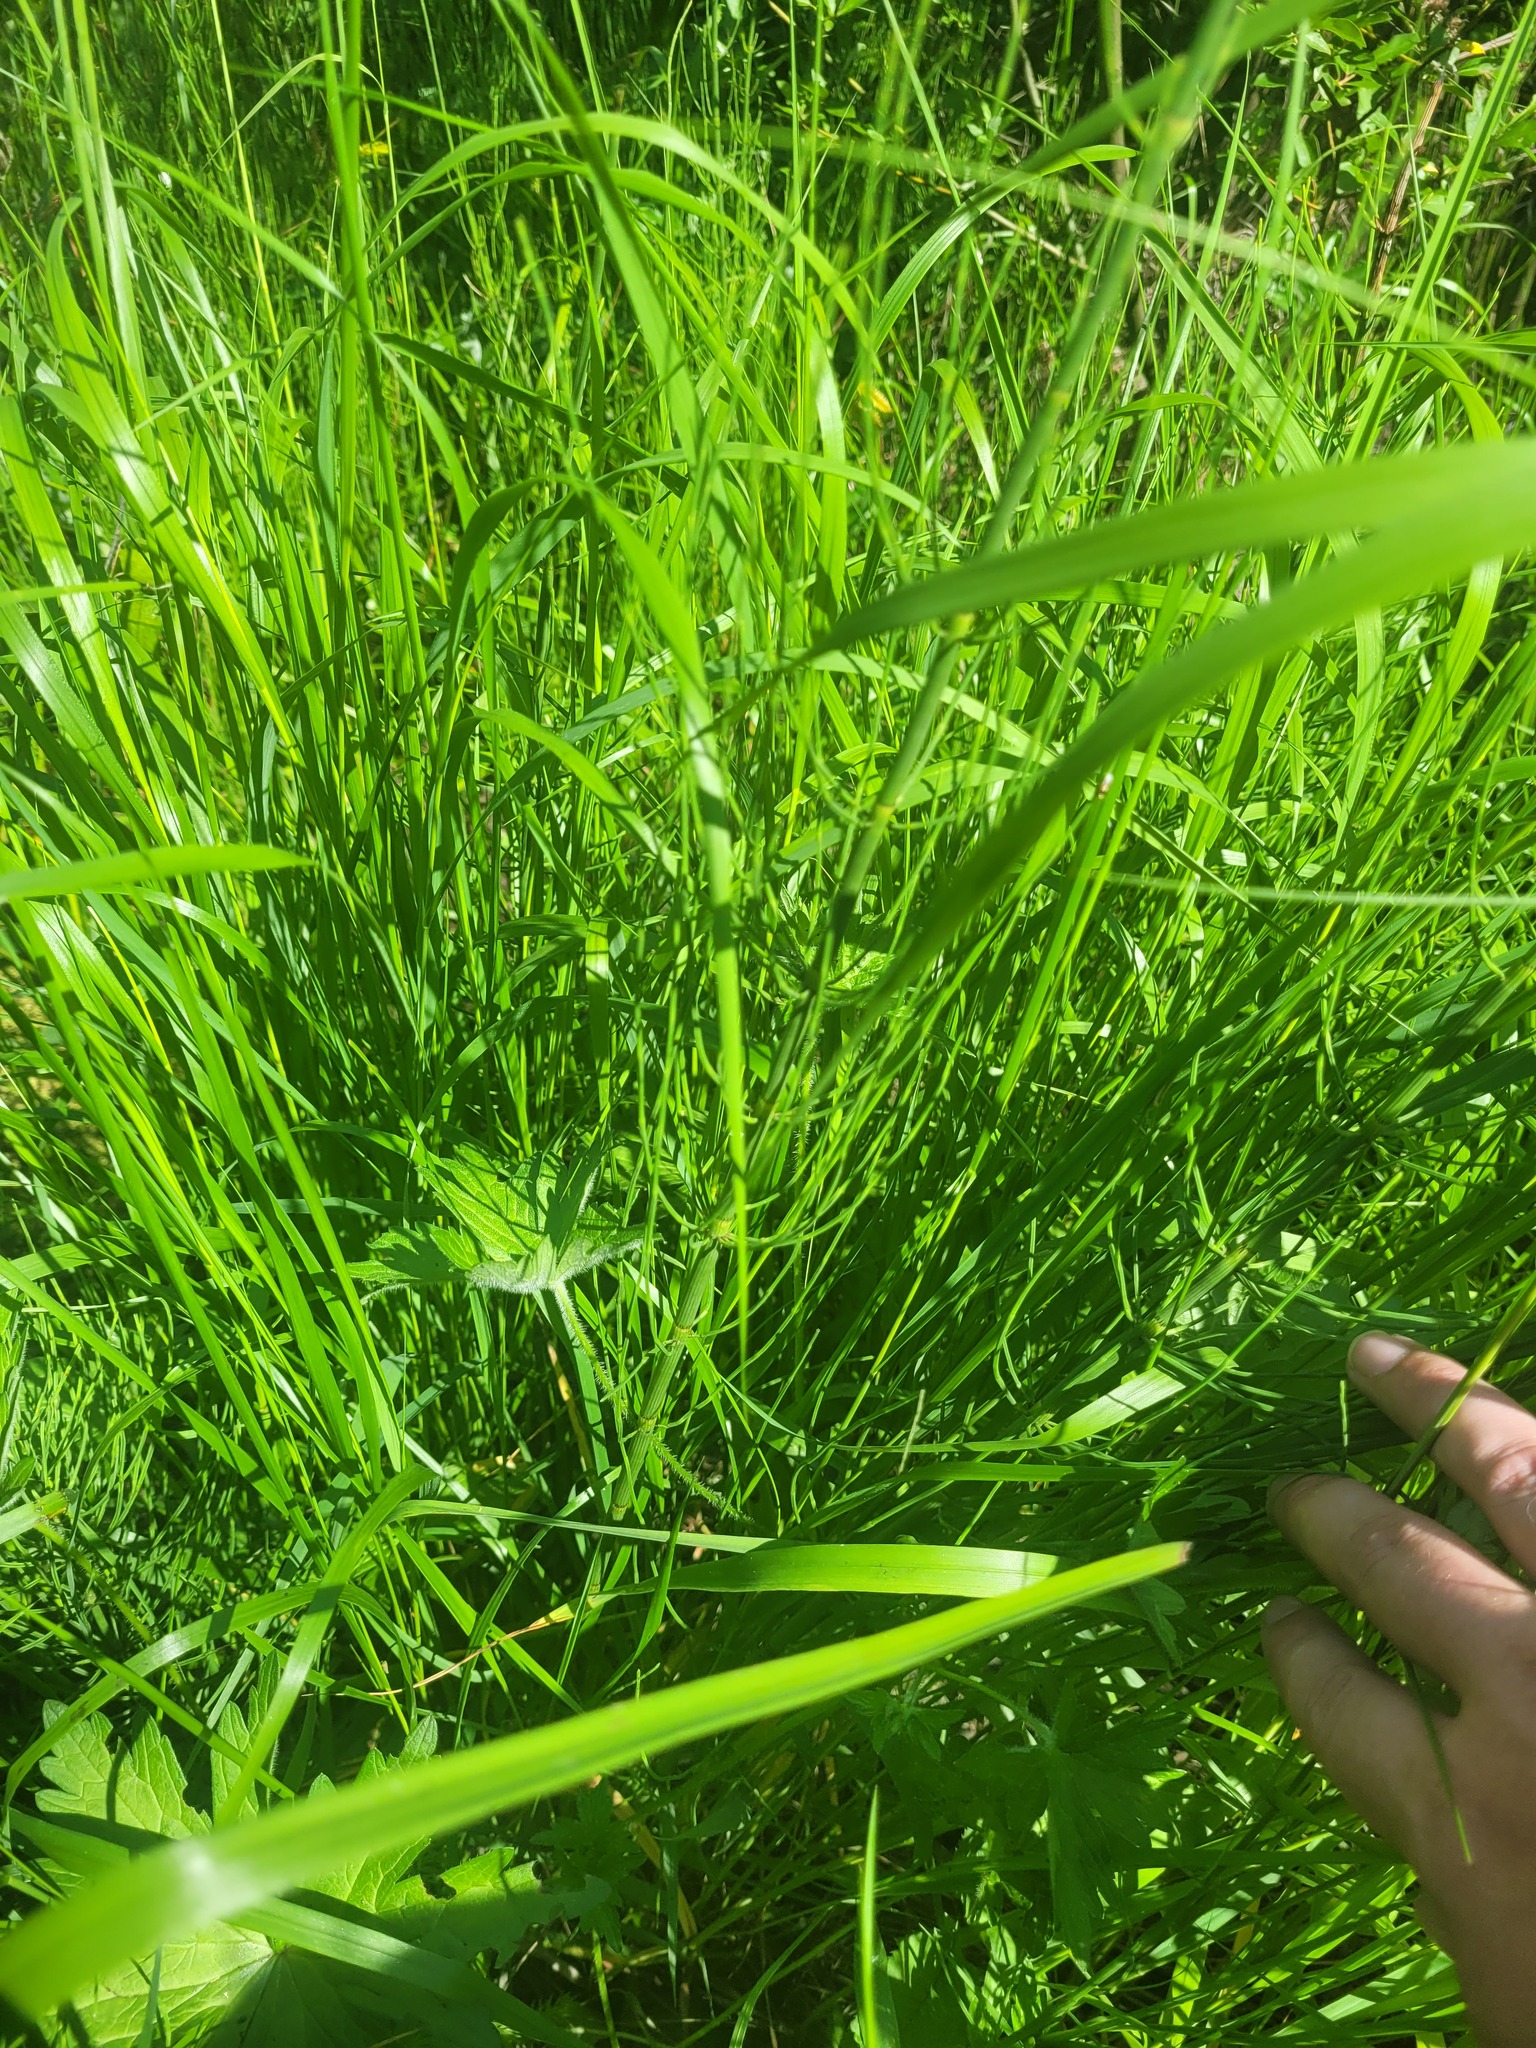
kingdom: Plantae
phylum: Tracheophyta
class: Polypodiopsida
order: Equisetales
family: Equisetaceae
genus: Equisetum
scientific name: Equisetum fluviatile
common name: Water horsetail
